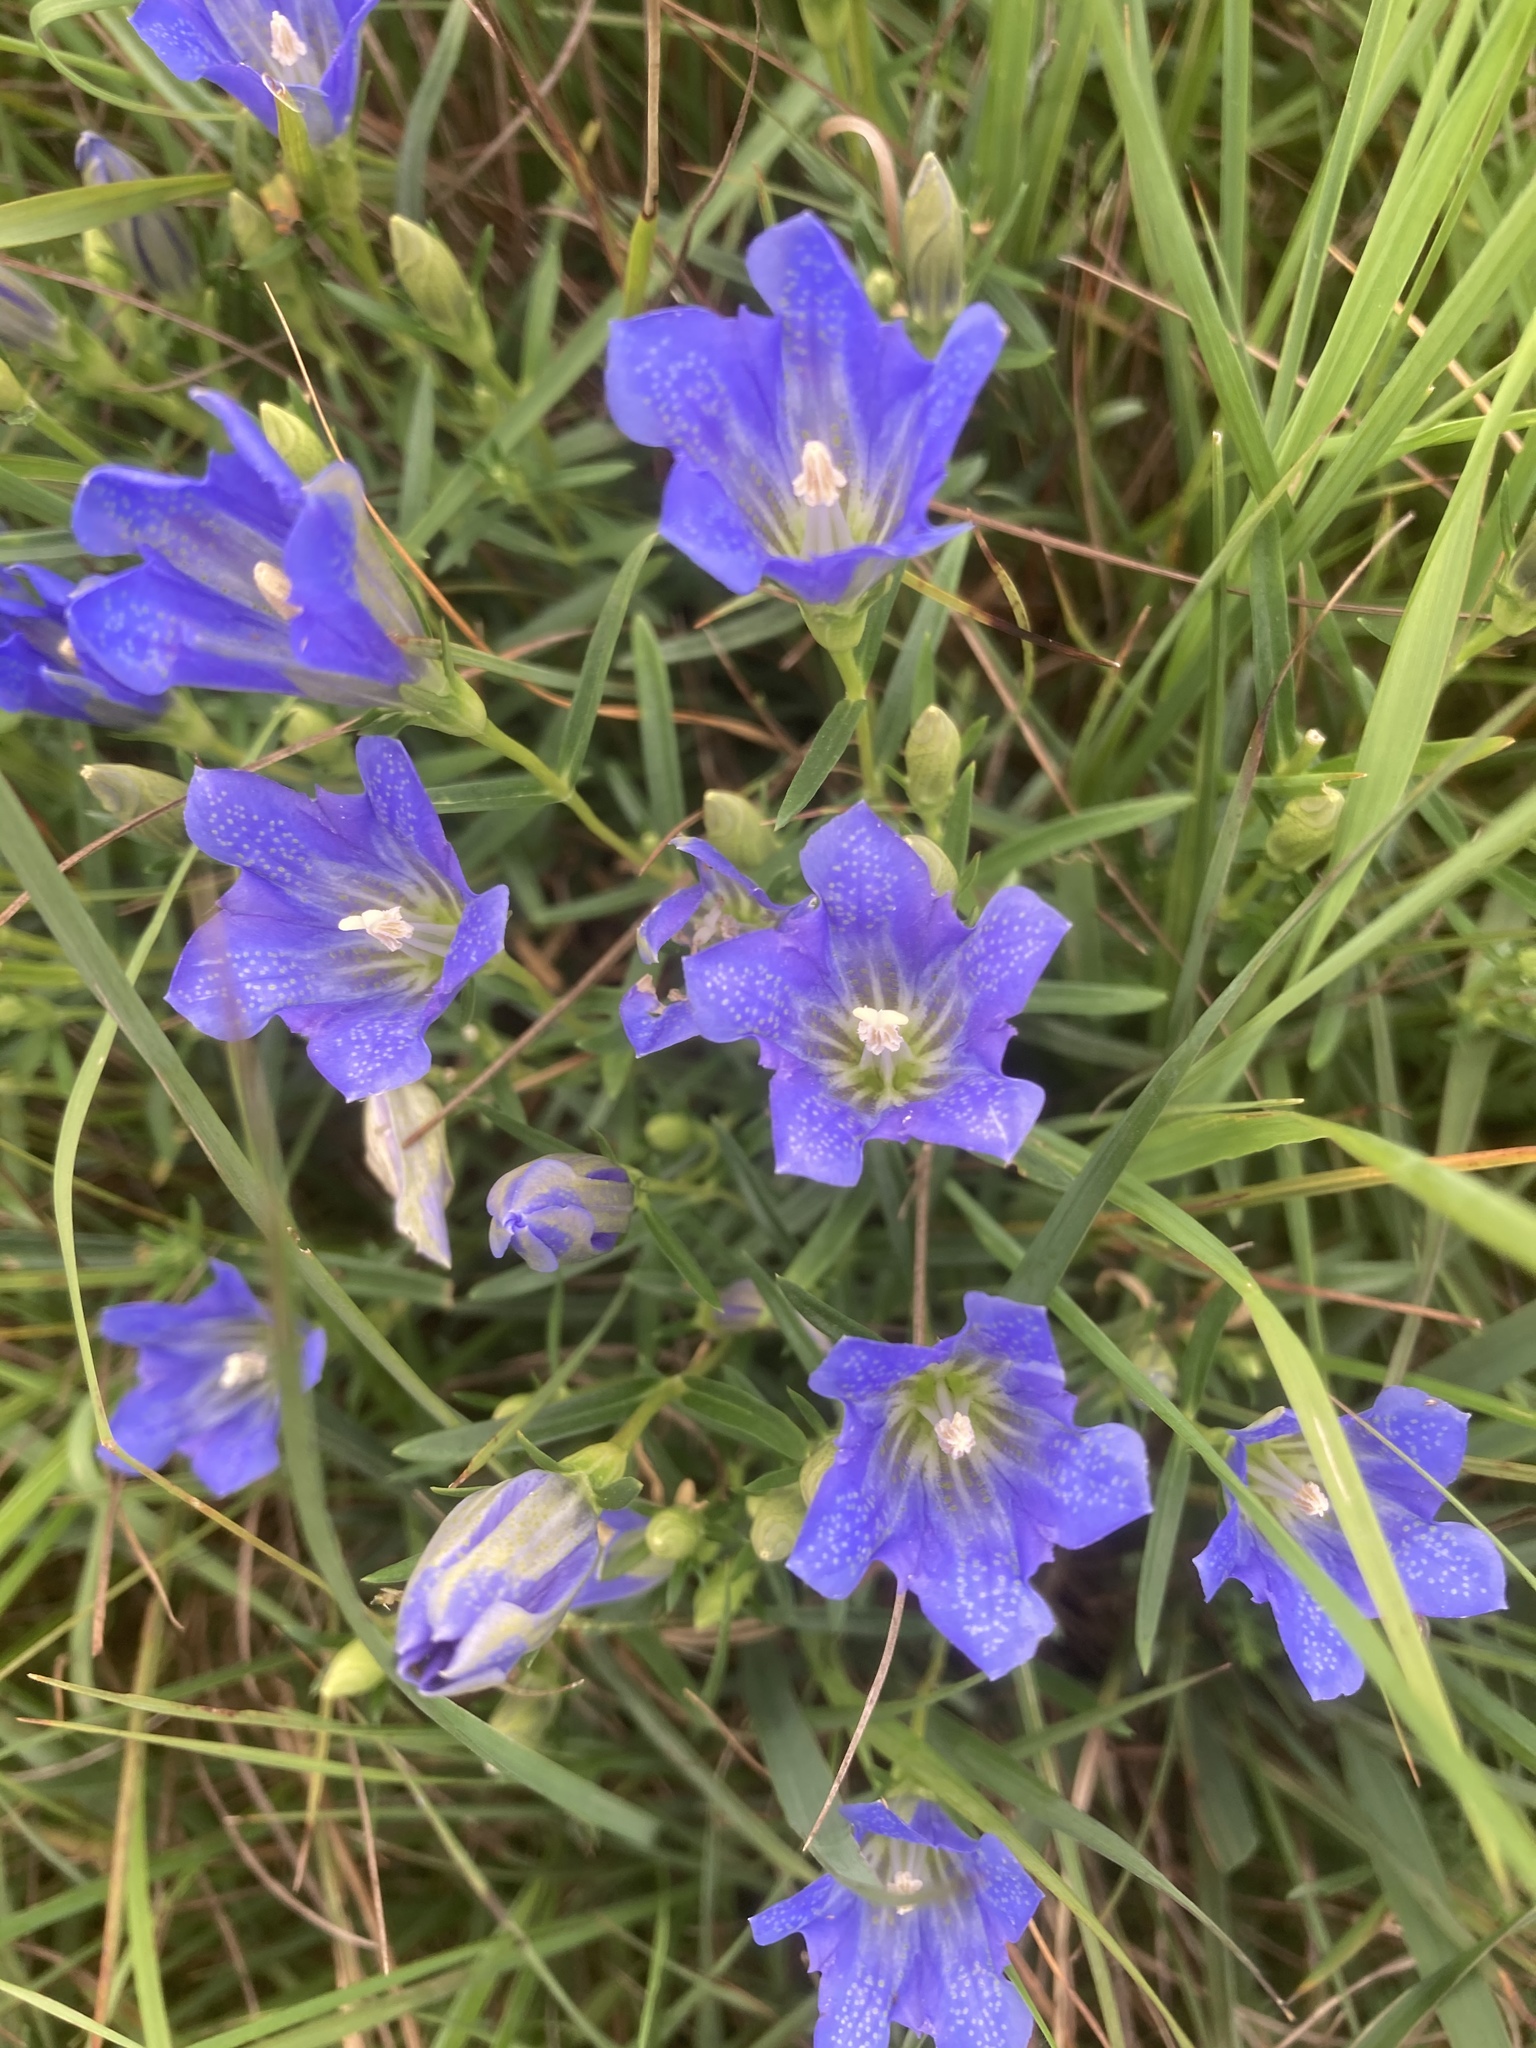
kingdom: Plantae
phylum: Tracheophyta
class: Magnoliopsida
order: Gentianales
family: Gentianaceae
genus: Gentiana
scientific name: Gentiana pneumonanthe
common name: Marsh gentian
